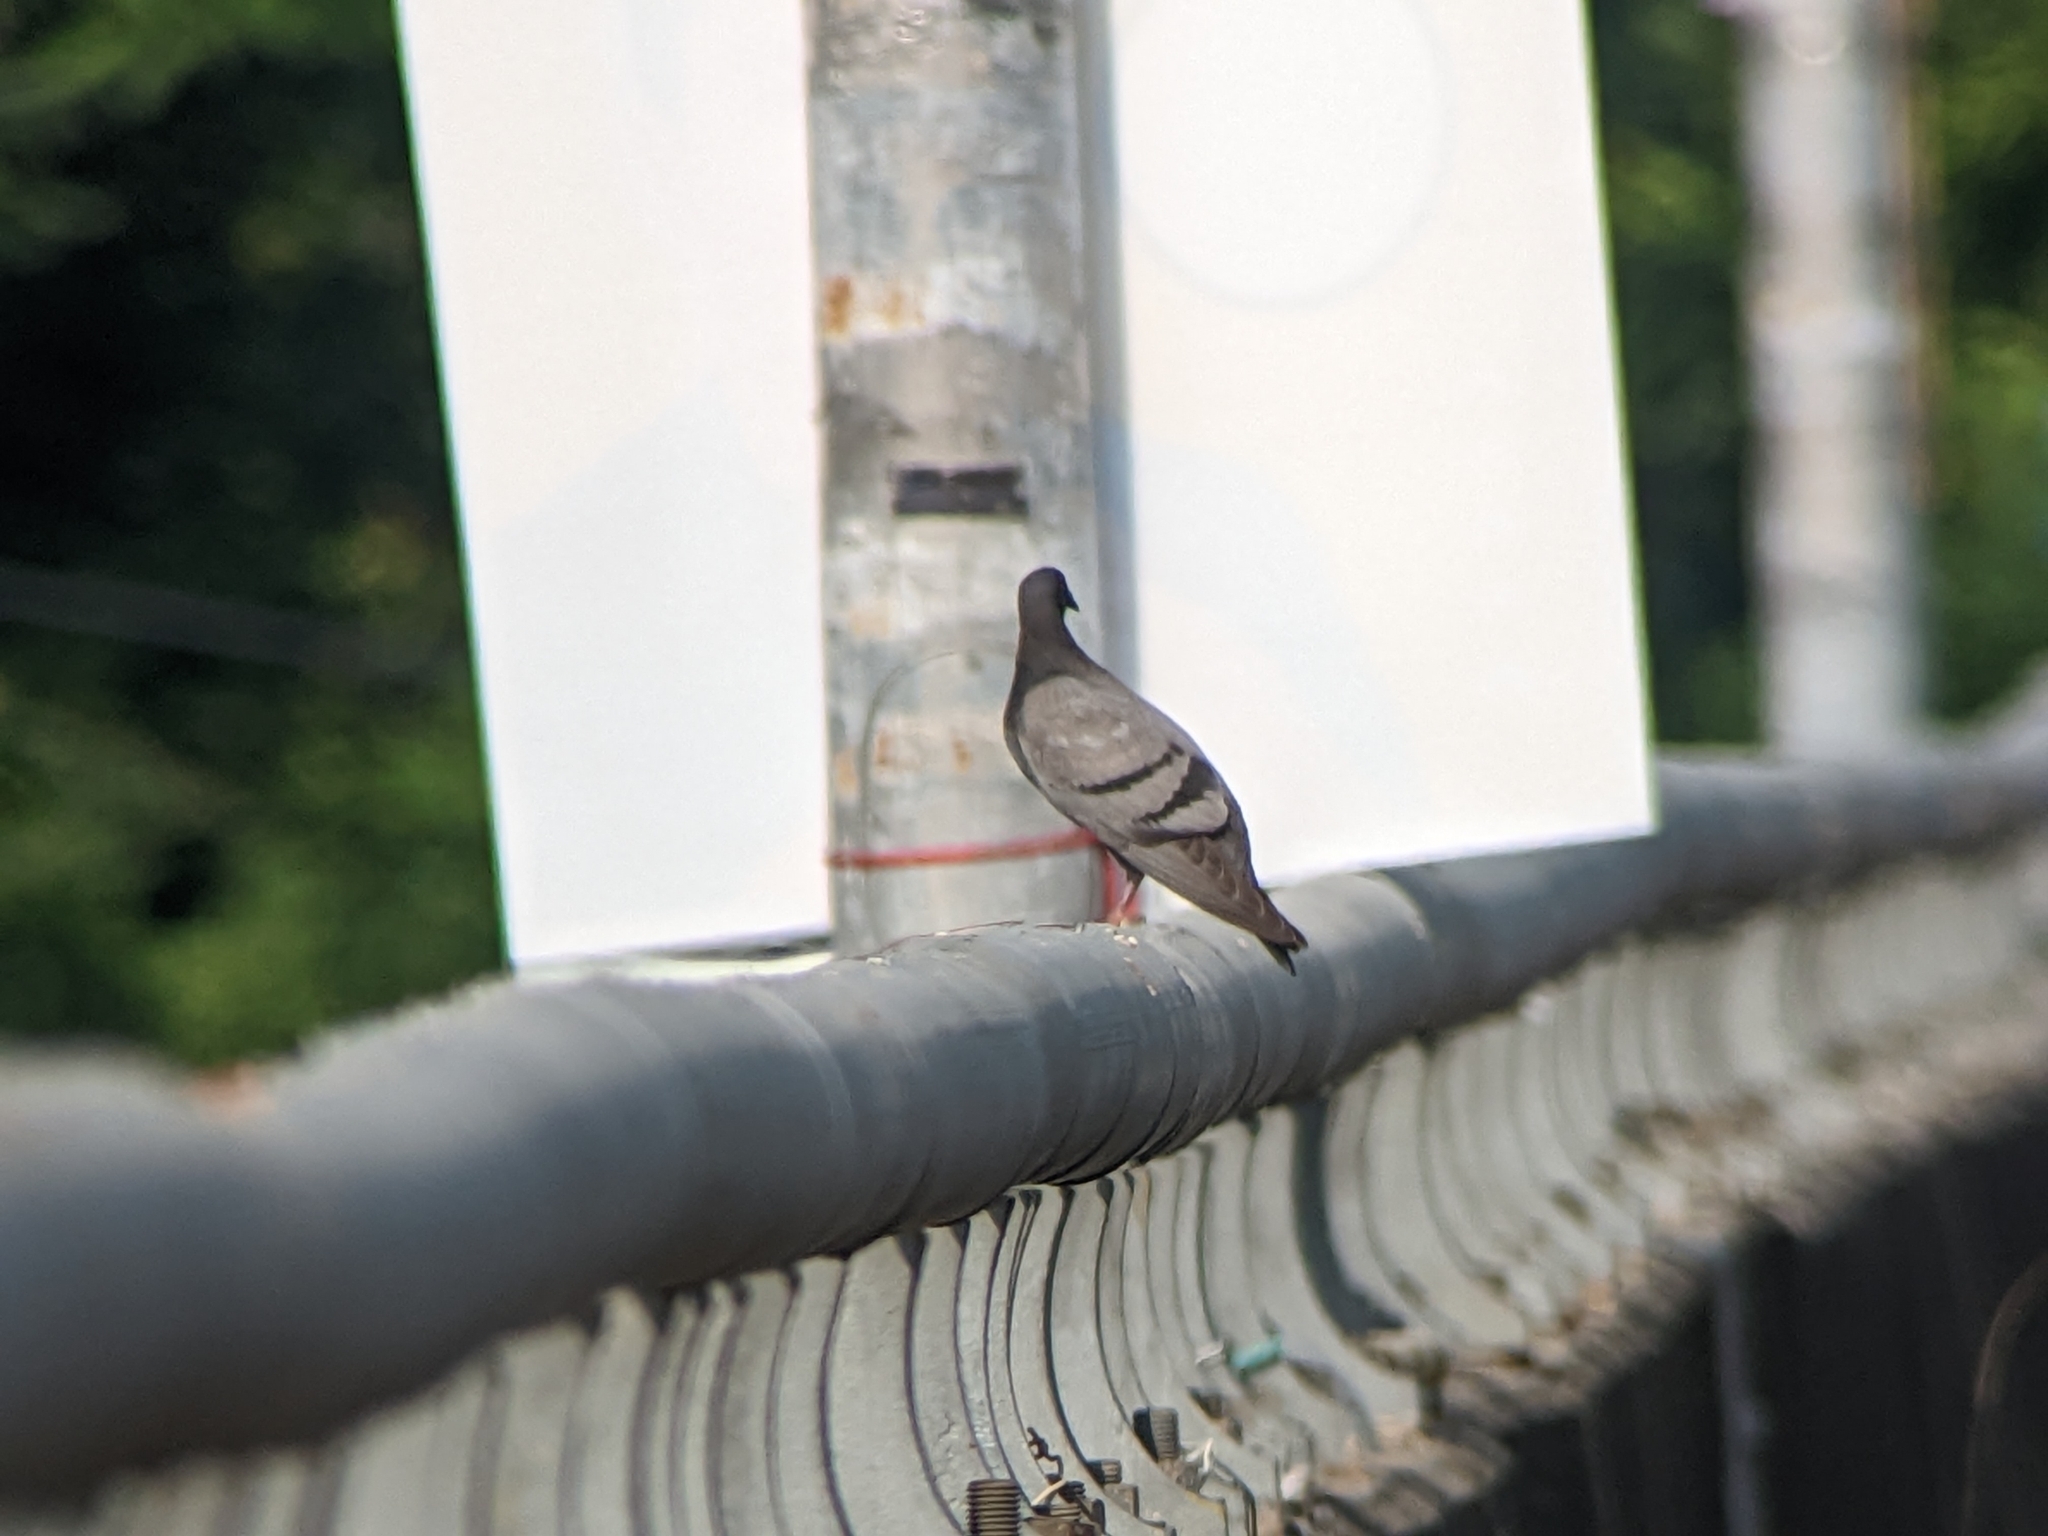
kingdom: Animalia
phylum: Chordata
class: Aves
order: Columbiformes
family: Columbidae
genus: Columba
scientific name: Columba livia
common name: Rock pigeon
